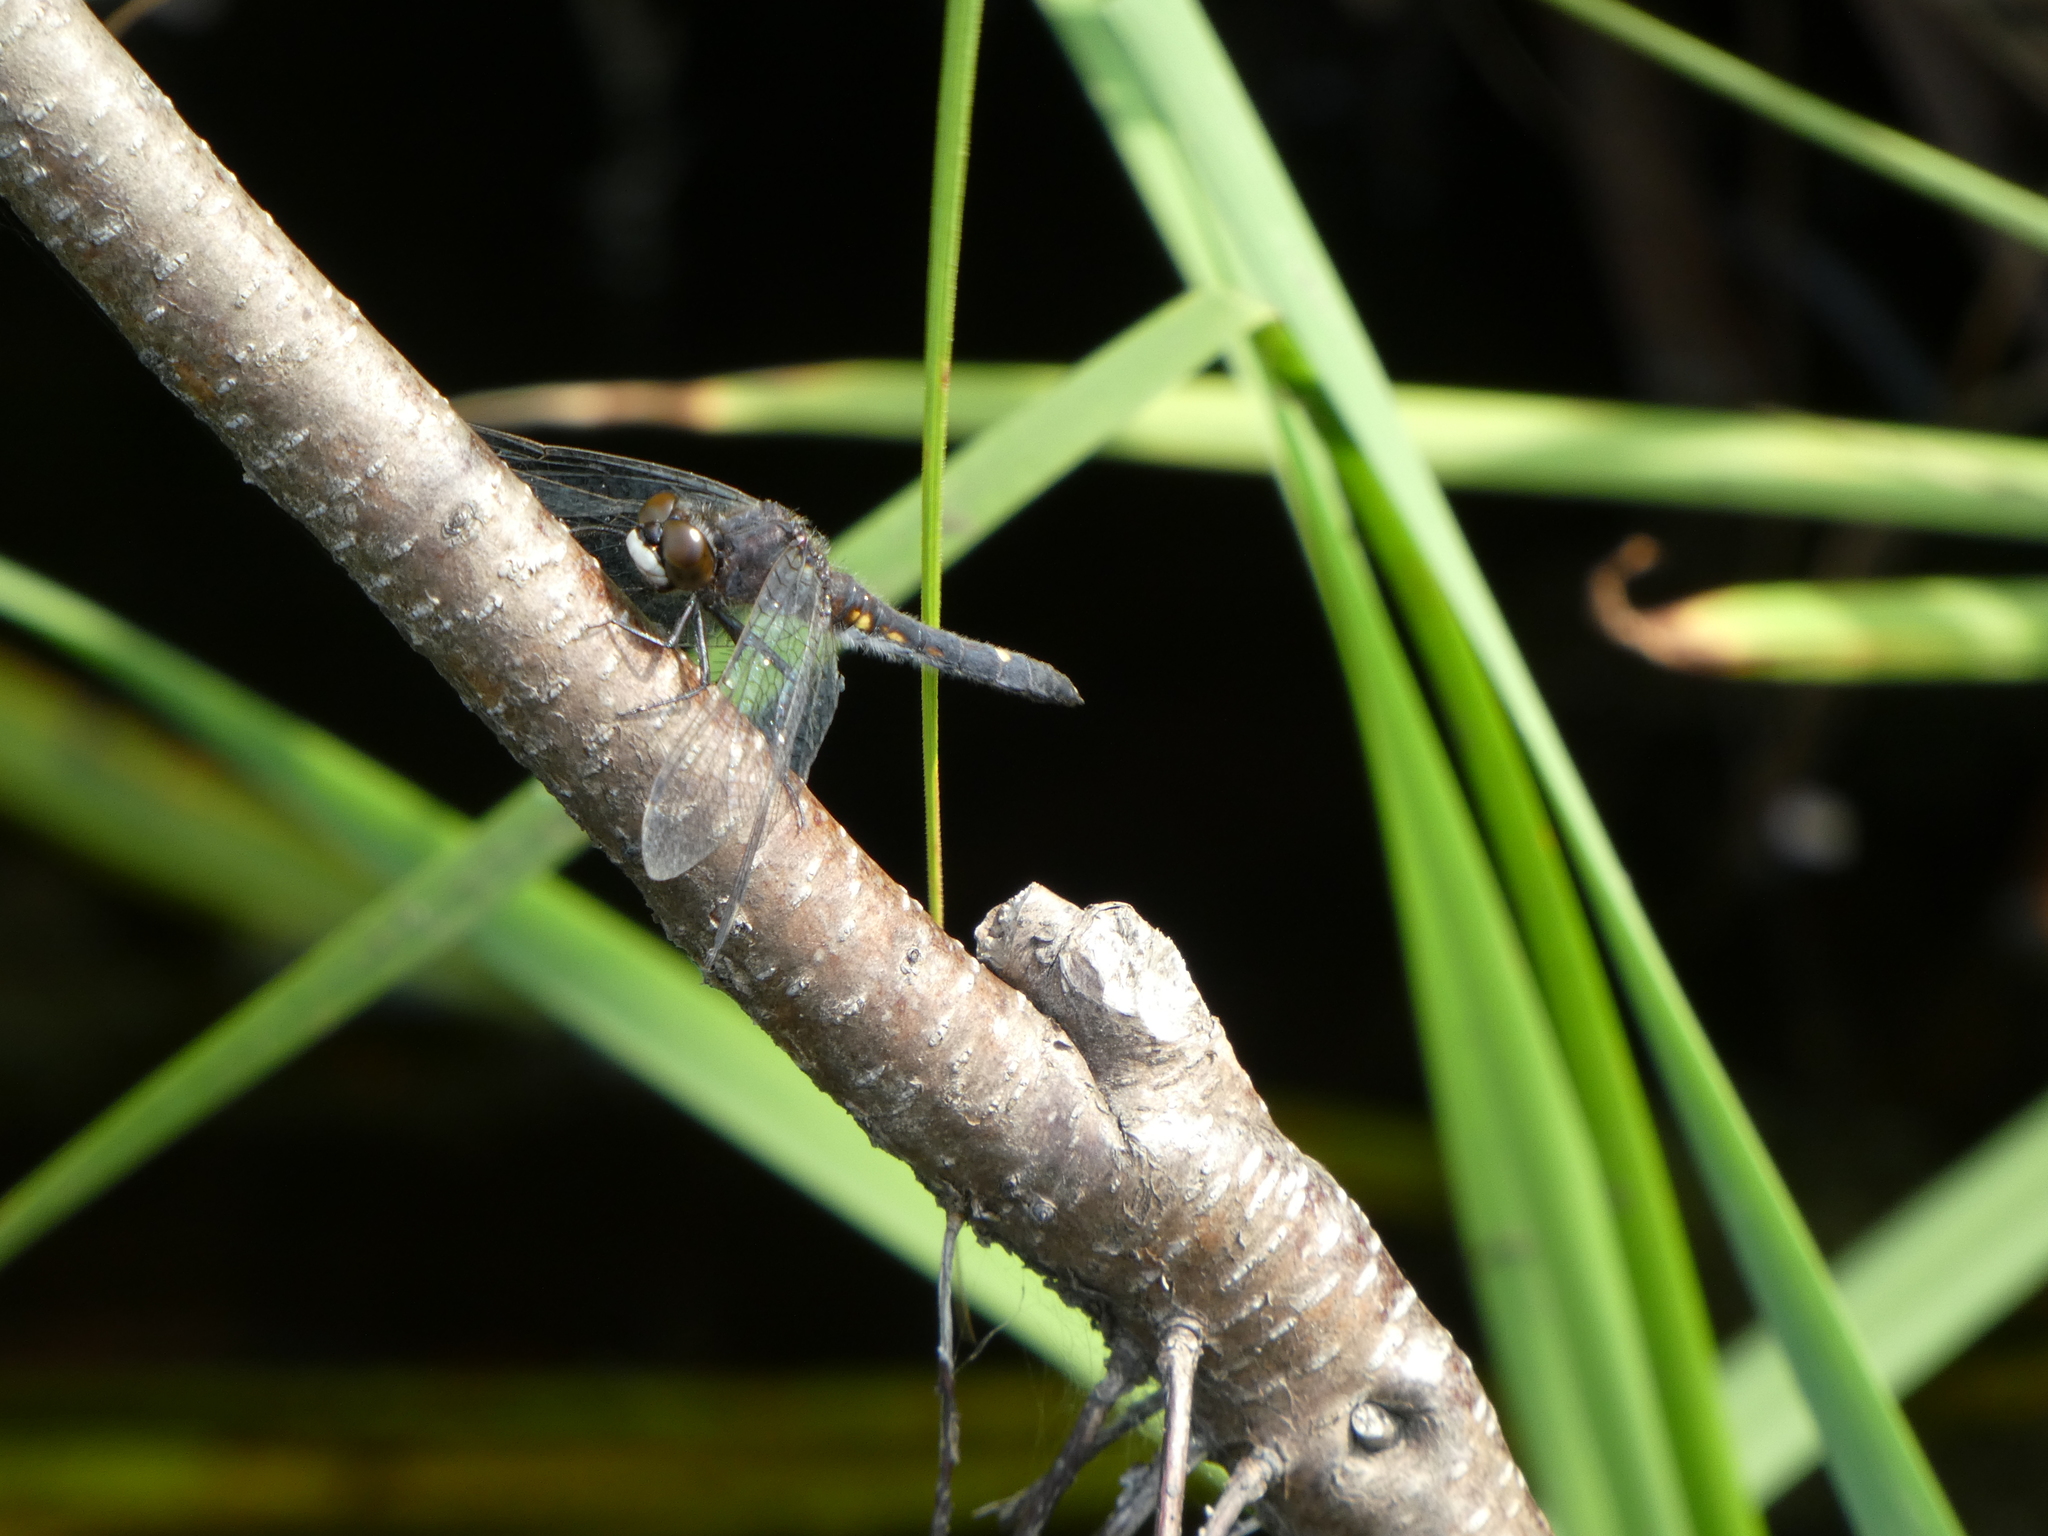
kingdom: Animalia
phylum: Arthropoda
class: Insecta
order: Odonata
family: Libellulidae
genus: Leucorrhinia
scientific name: Leucorrhinia intacta
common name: Dot-tailed whiteface
